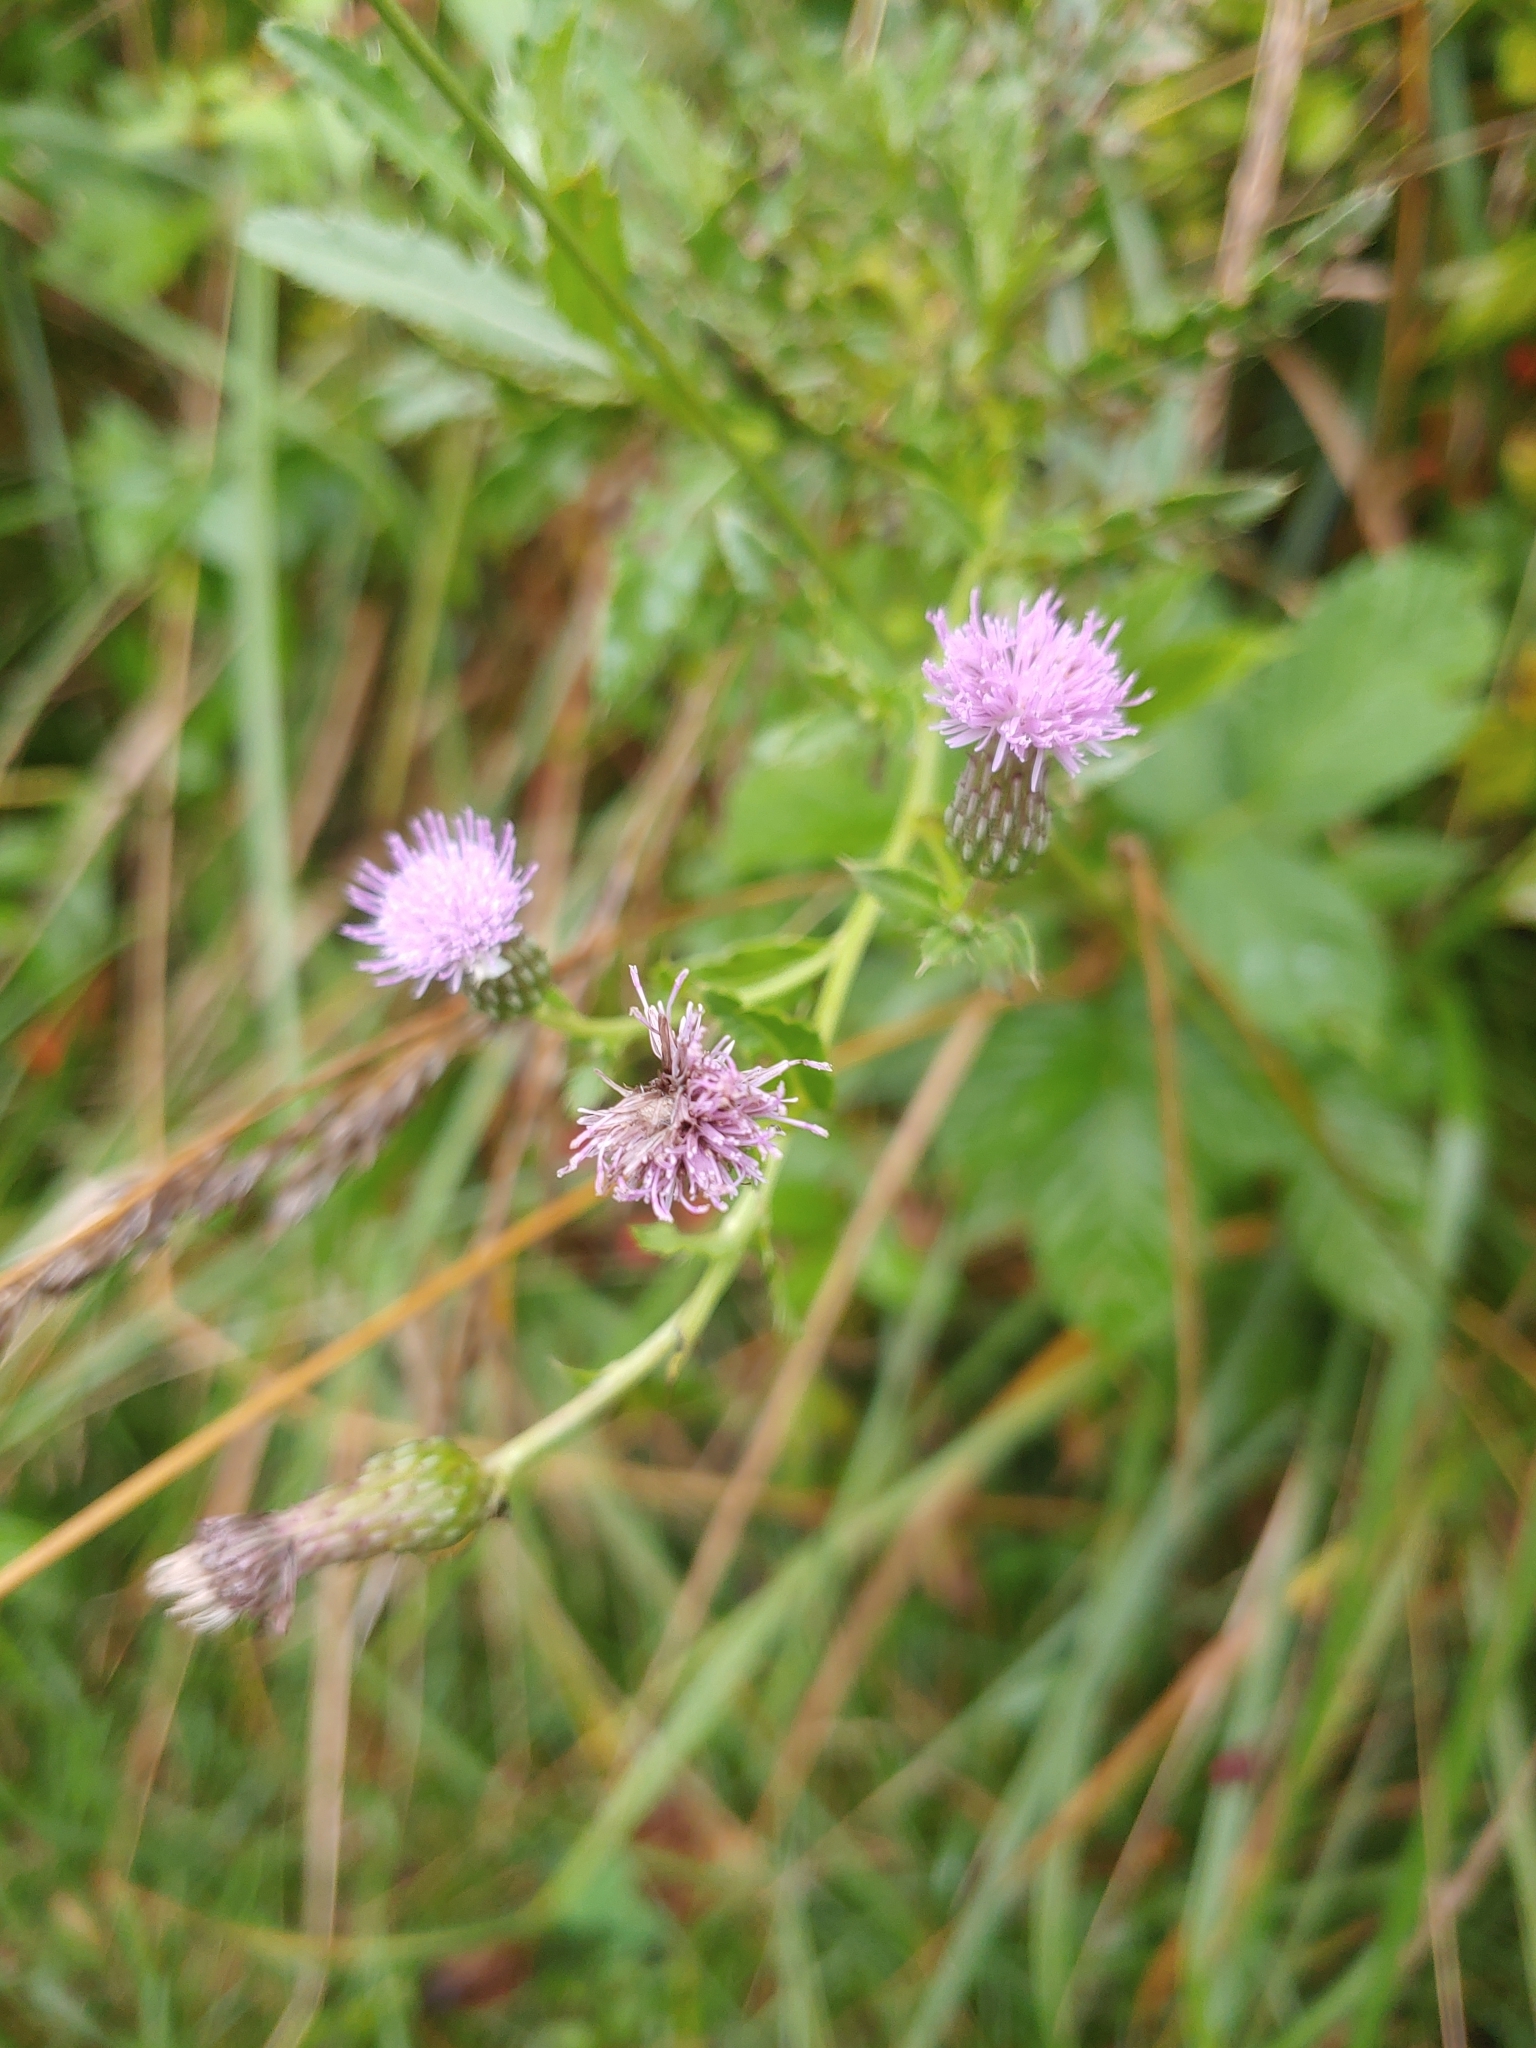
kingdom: Plantae
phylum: Tracheophyta
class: Magnoliopsida
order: Asterales
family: Asteraceae
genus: Cirsium
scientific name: Cirsium arvense
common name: Creeping thistle
